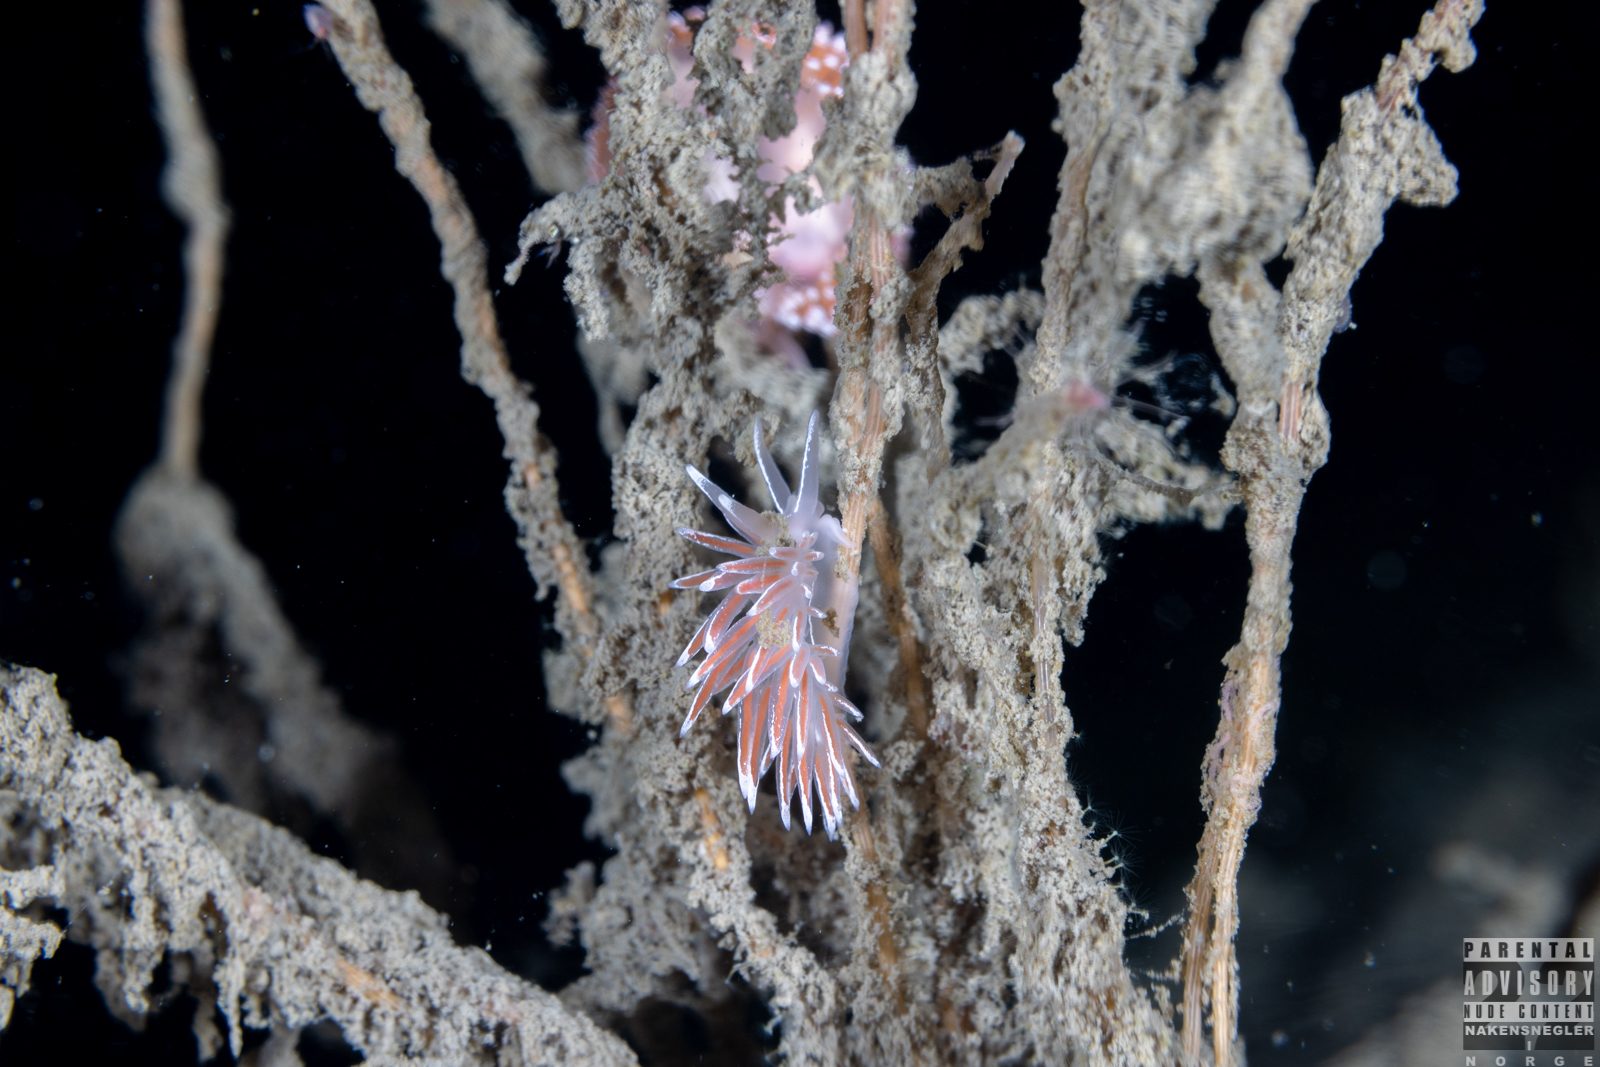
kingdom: Animalia
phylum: Mollusca
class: Gastropoda
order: Nudibranchia
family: Coryphellidae
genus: Coryphella
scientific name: Coryphella lineata
